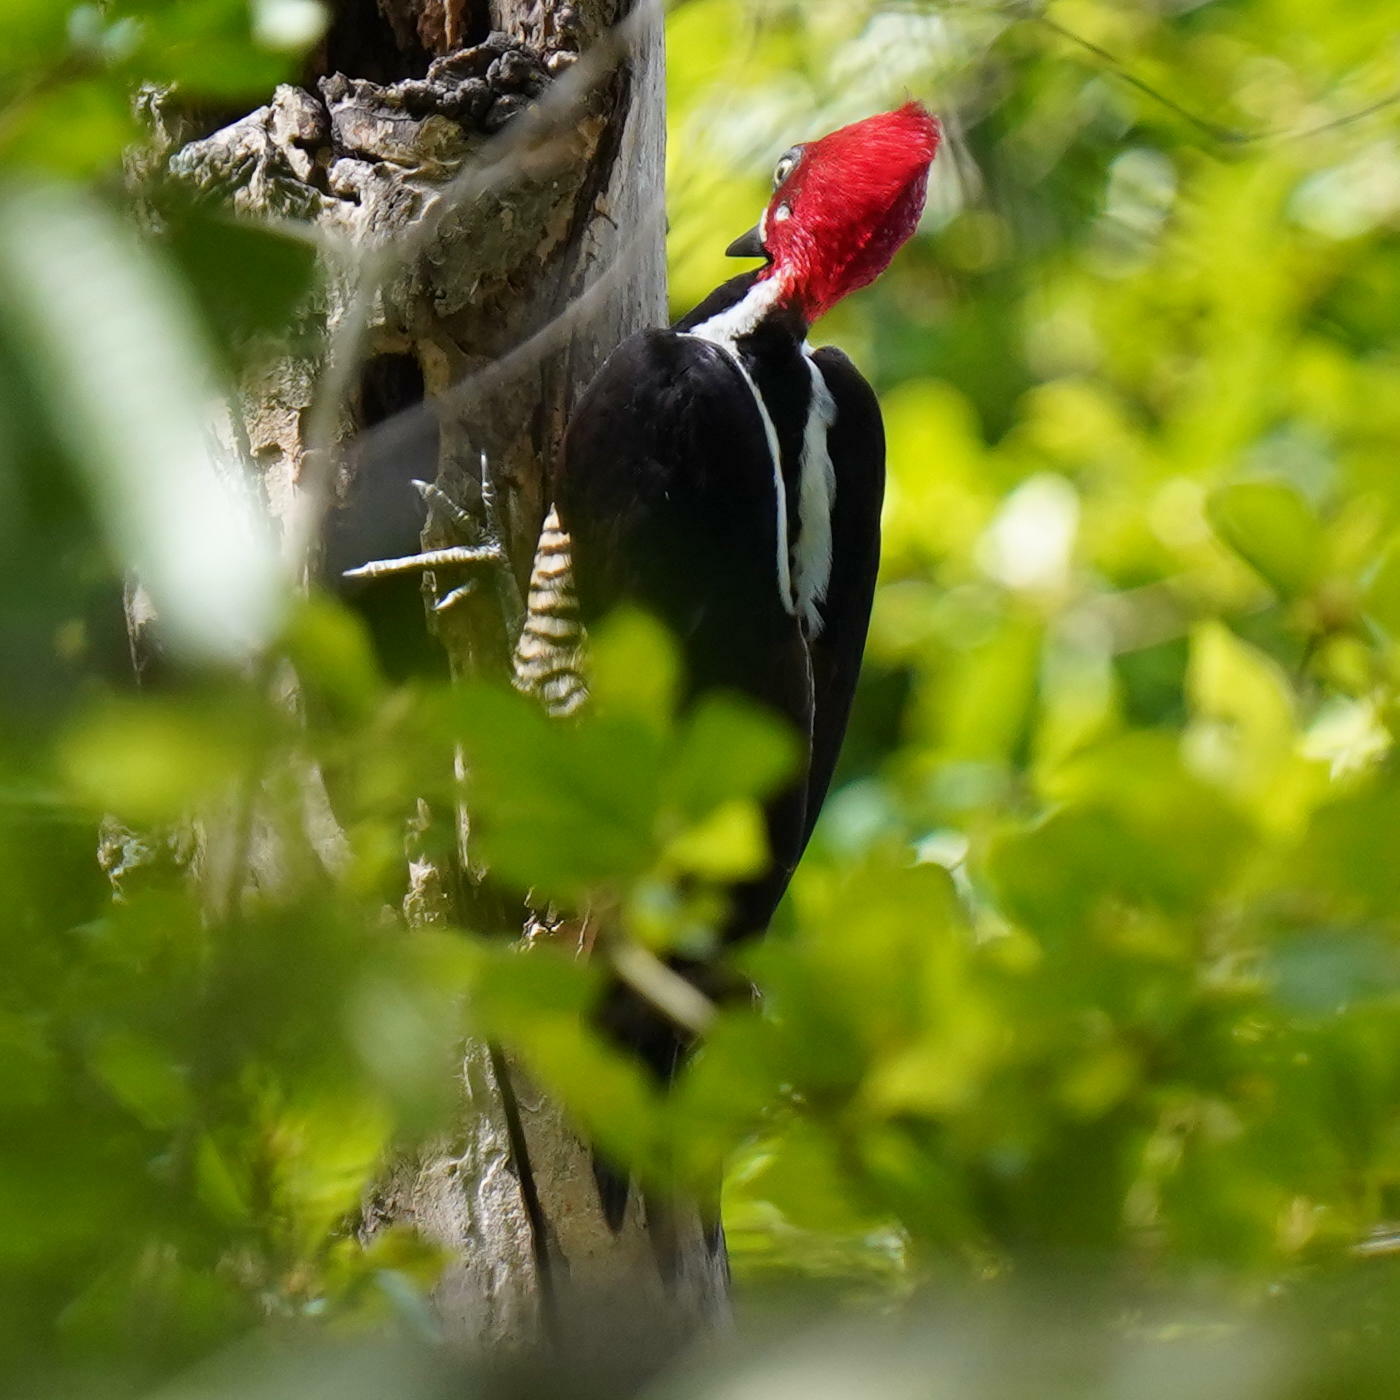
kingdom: Animalia
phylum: Chordata
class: Aves
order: Piciformes
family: Picidae
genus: Campephilus
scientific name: Campephilus melanoleucos
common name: Crimson-crested woodpecker
